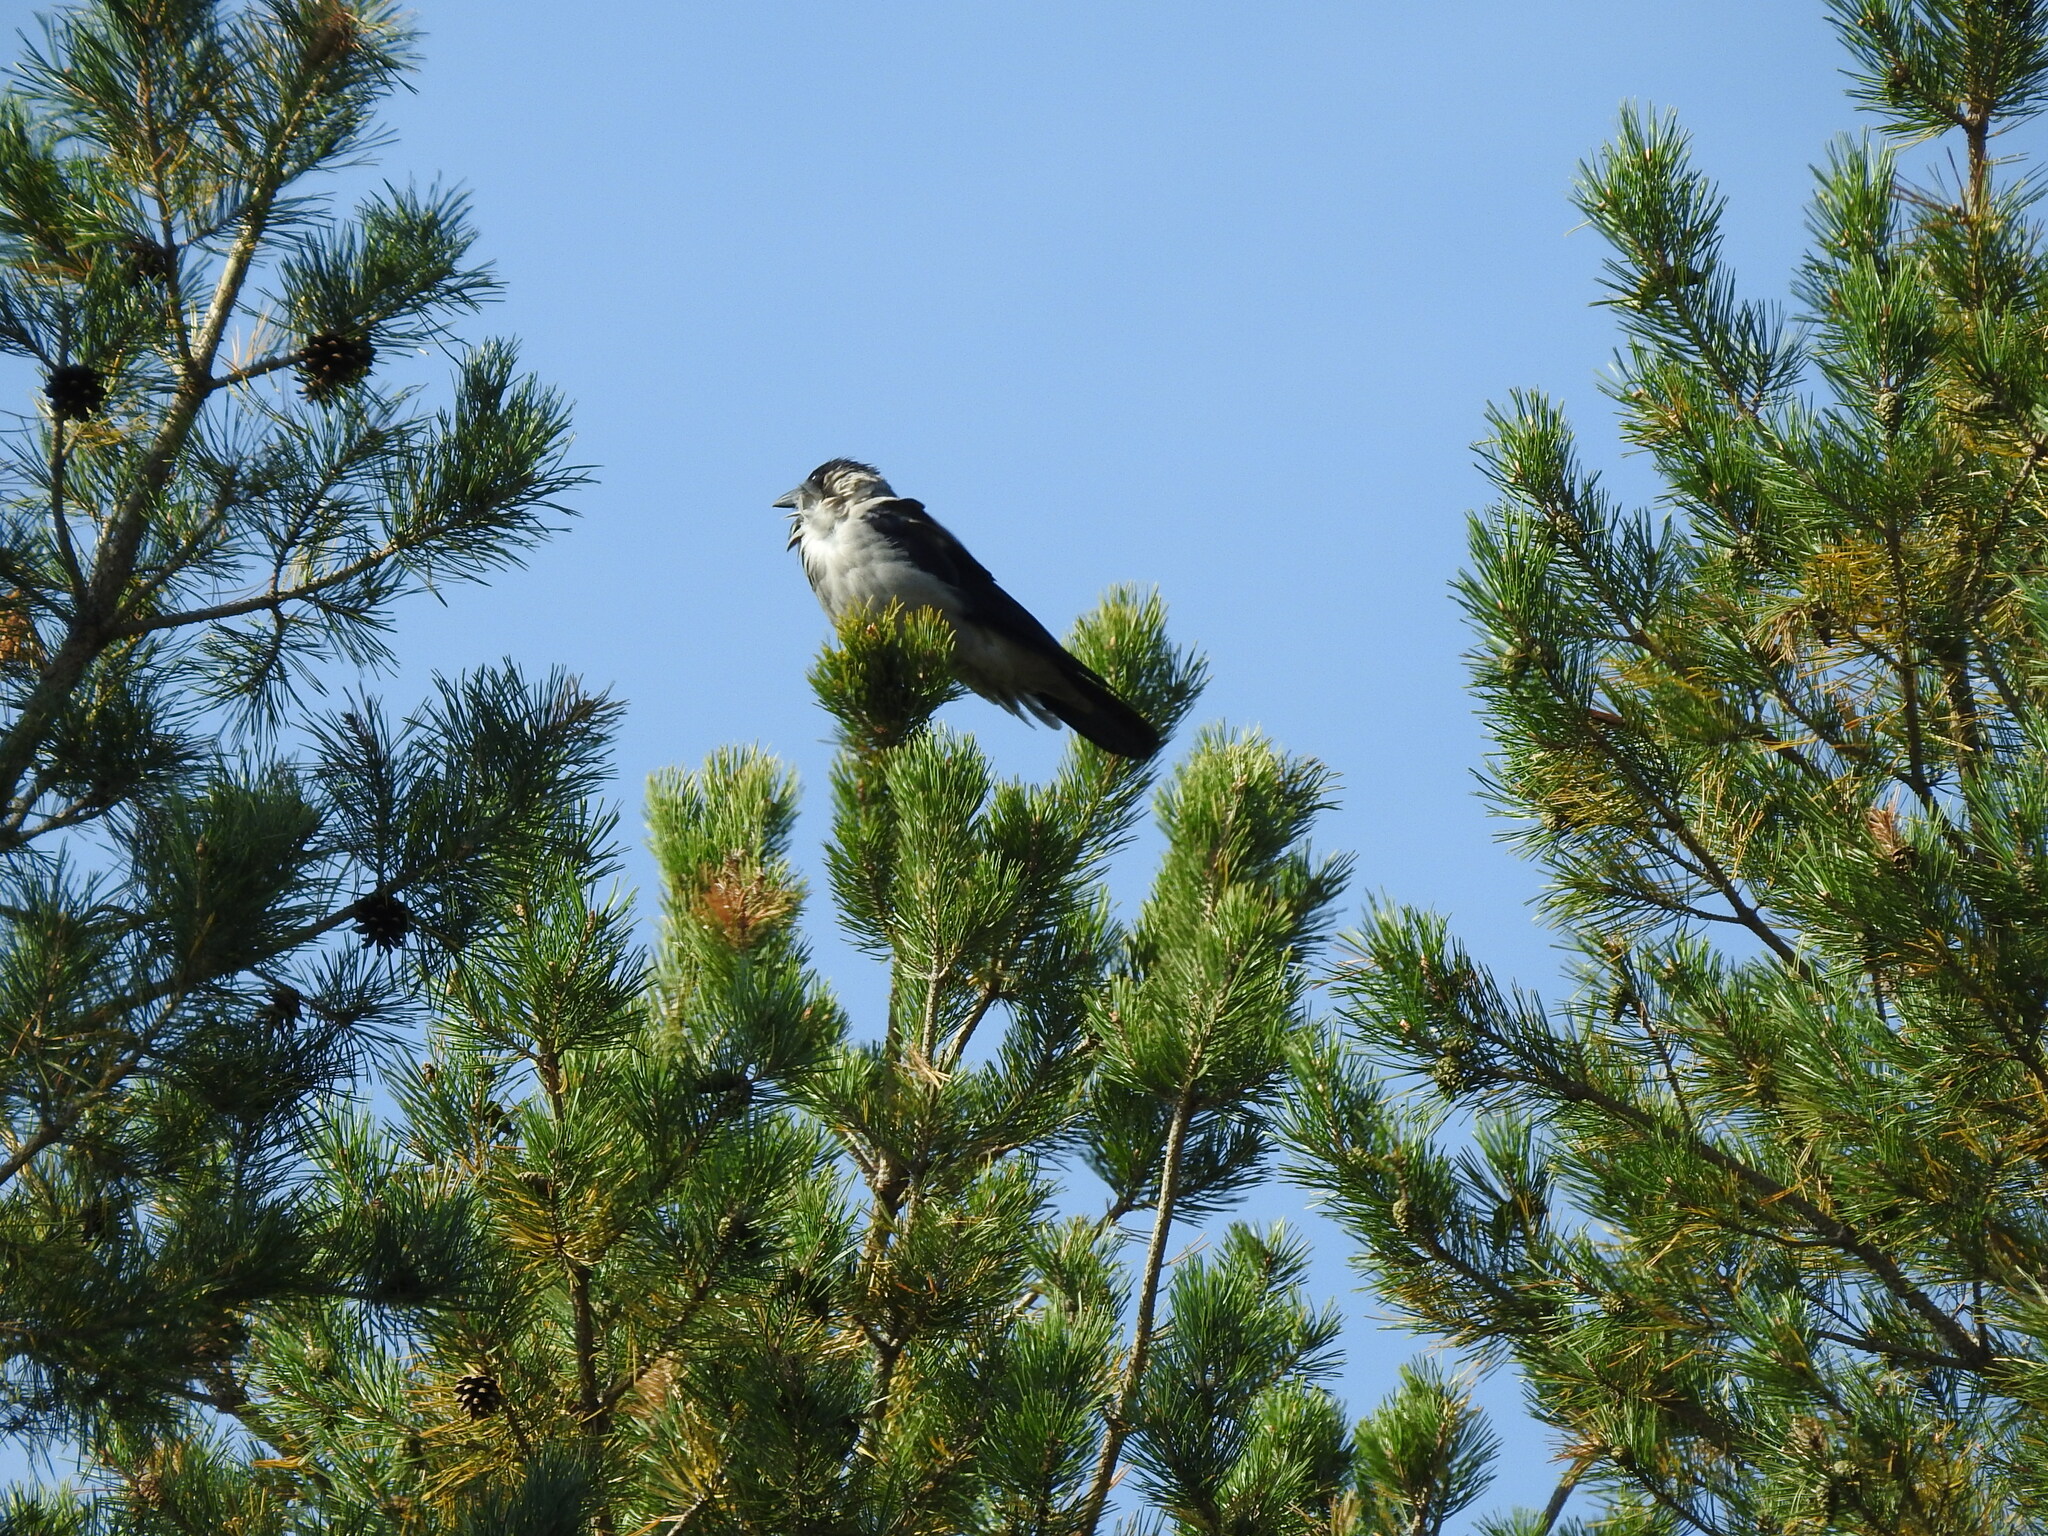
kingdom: Animalia
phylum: Chordata
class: Aves
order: Passeriformes
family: Corvidae
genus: Corvus
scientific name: Corvus cornix
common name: Hooded crow
